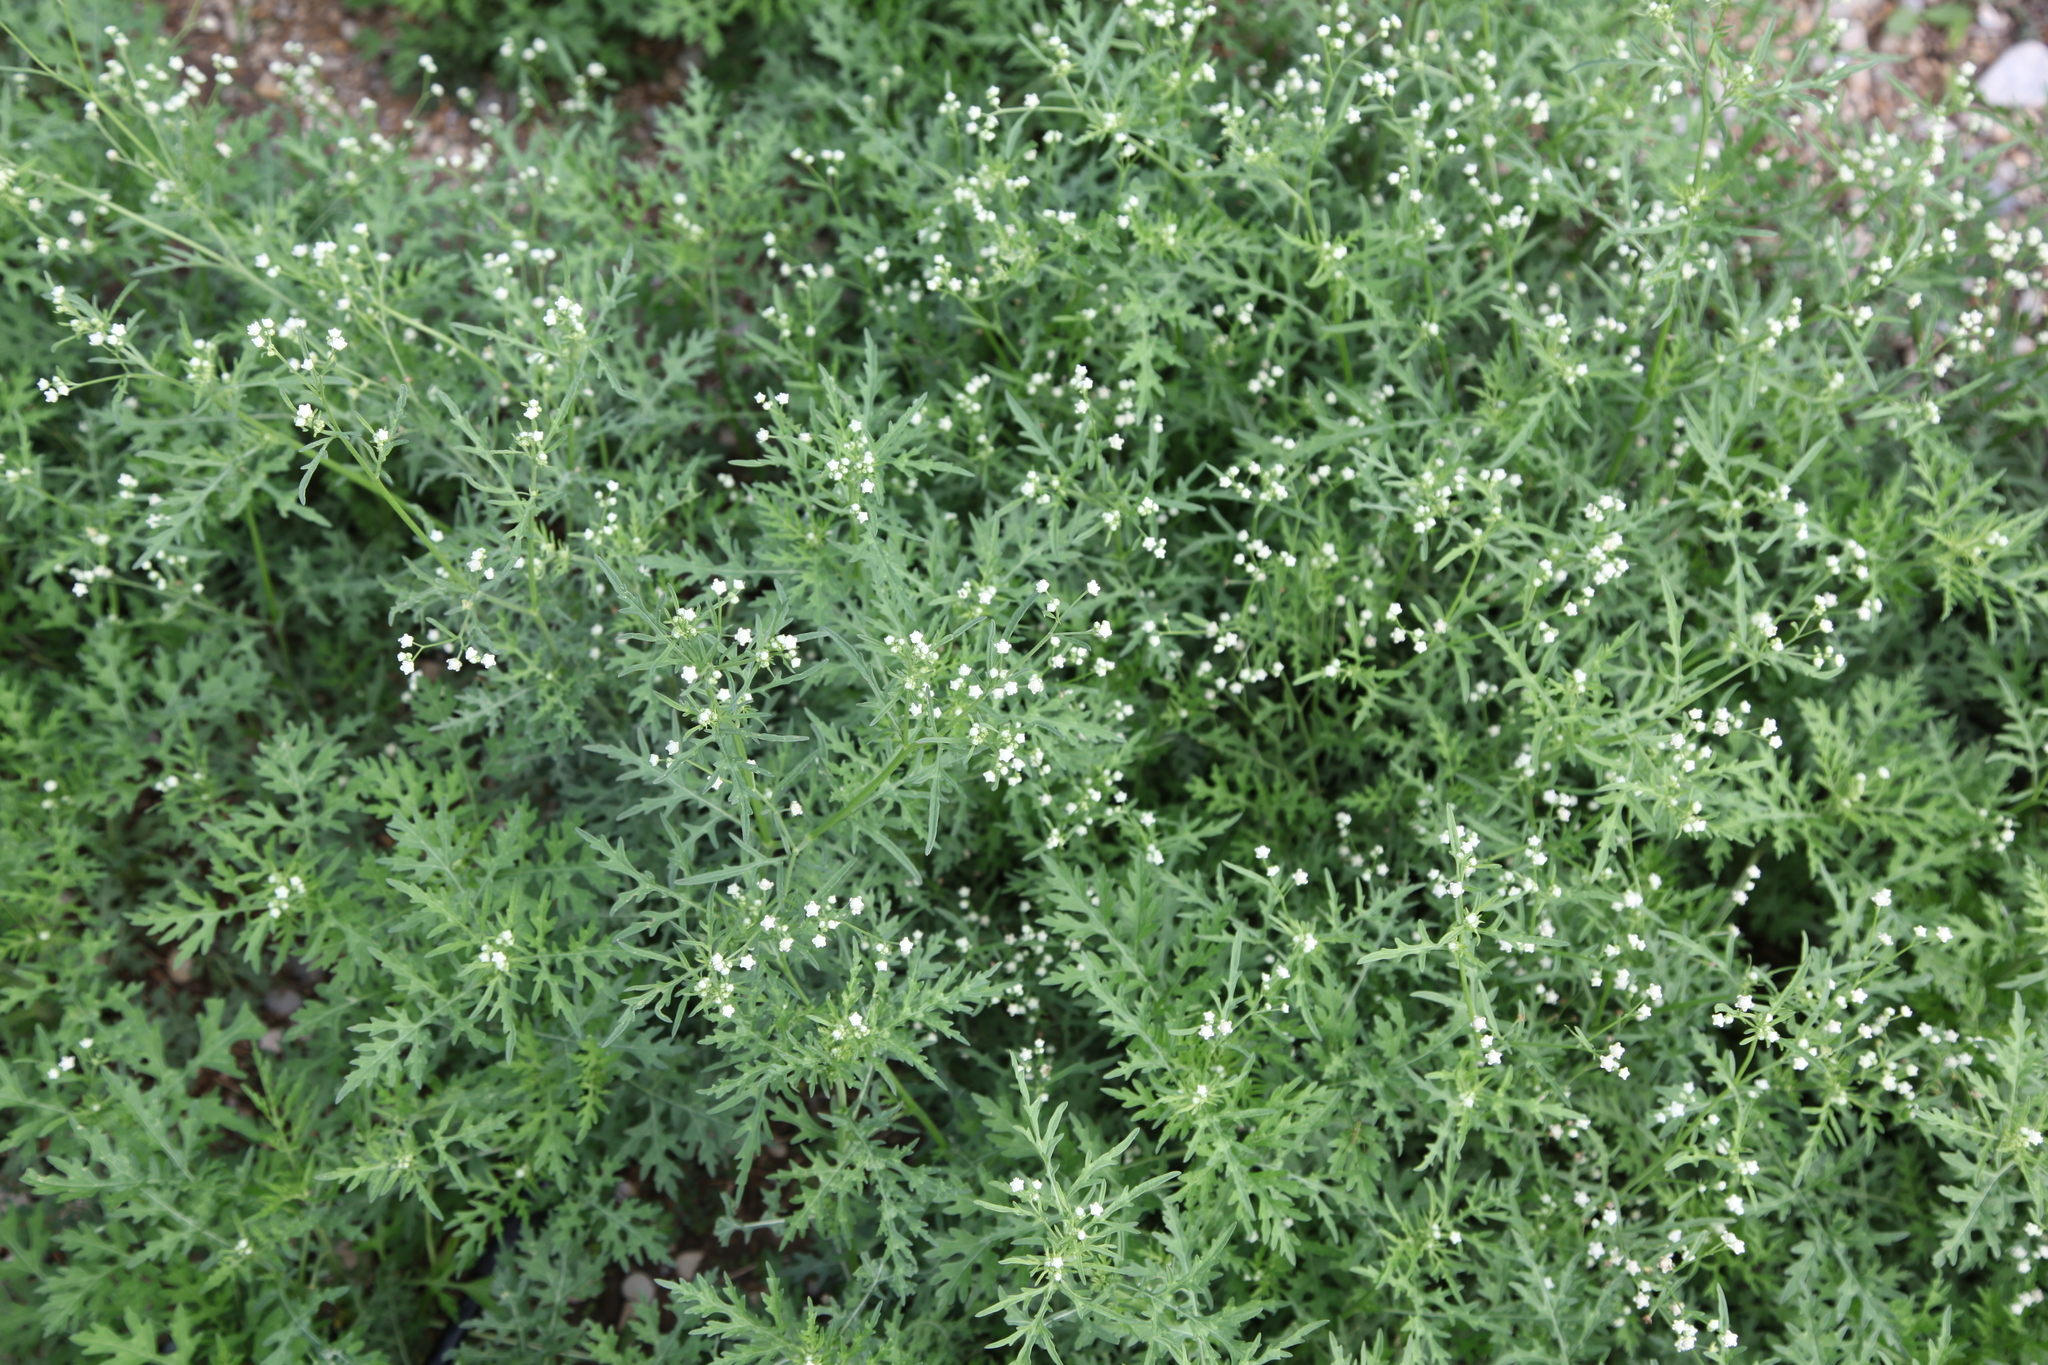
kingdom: Plantae
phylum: Tracheophyta
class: Magnoliopsida
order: Asterales
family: Asteraceae
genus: Parthenium
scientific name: Parthenium hysterophorus
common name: Santa maria feverfew
